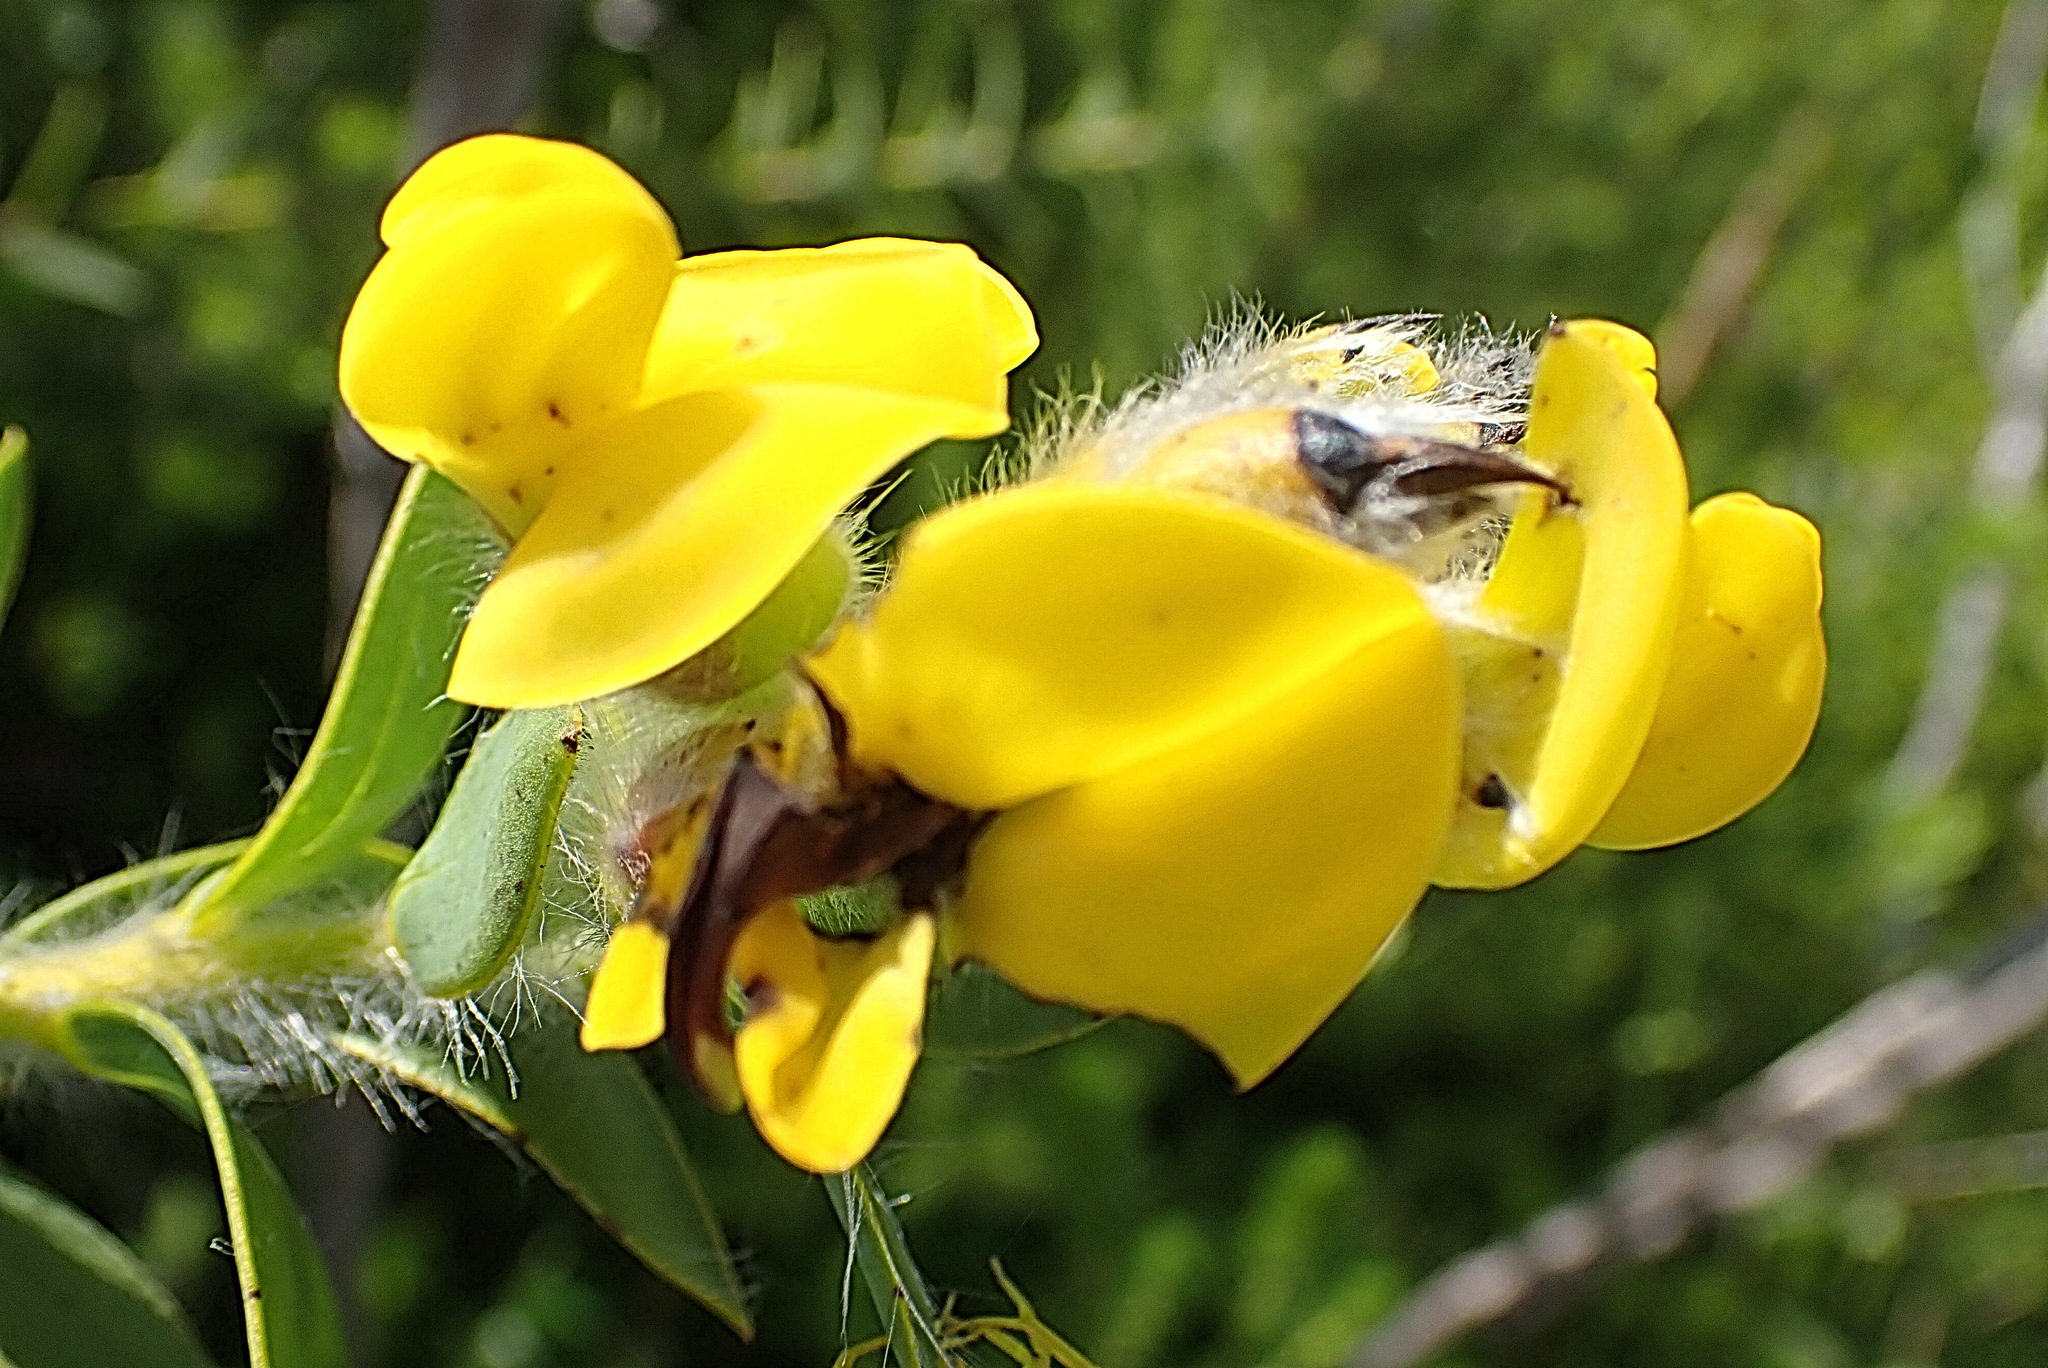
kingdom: Plantae
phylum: Tracheophyta
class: Magnoliopsida
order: Fabales
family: Fabaceae
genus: Liparia
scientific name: Liparia hirsuta
